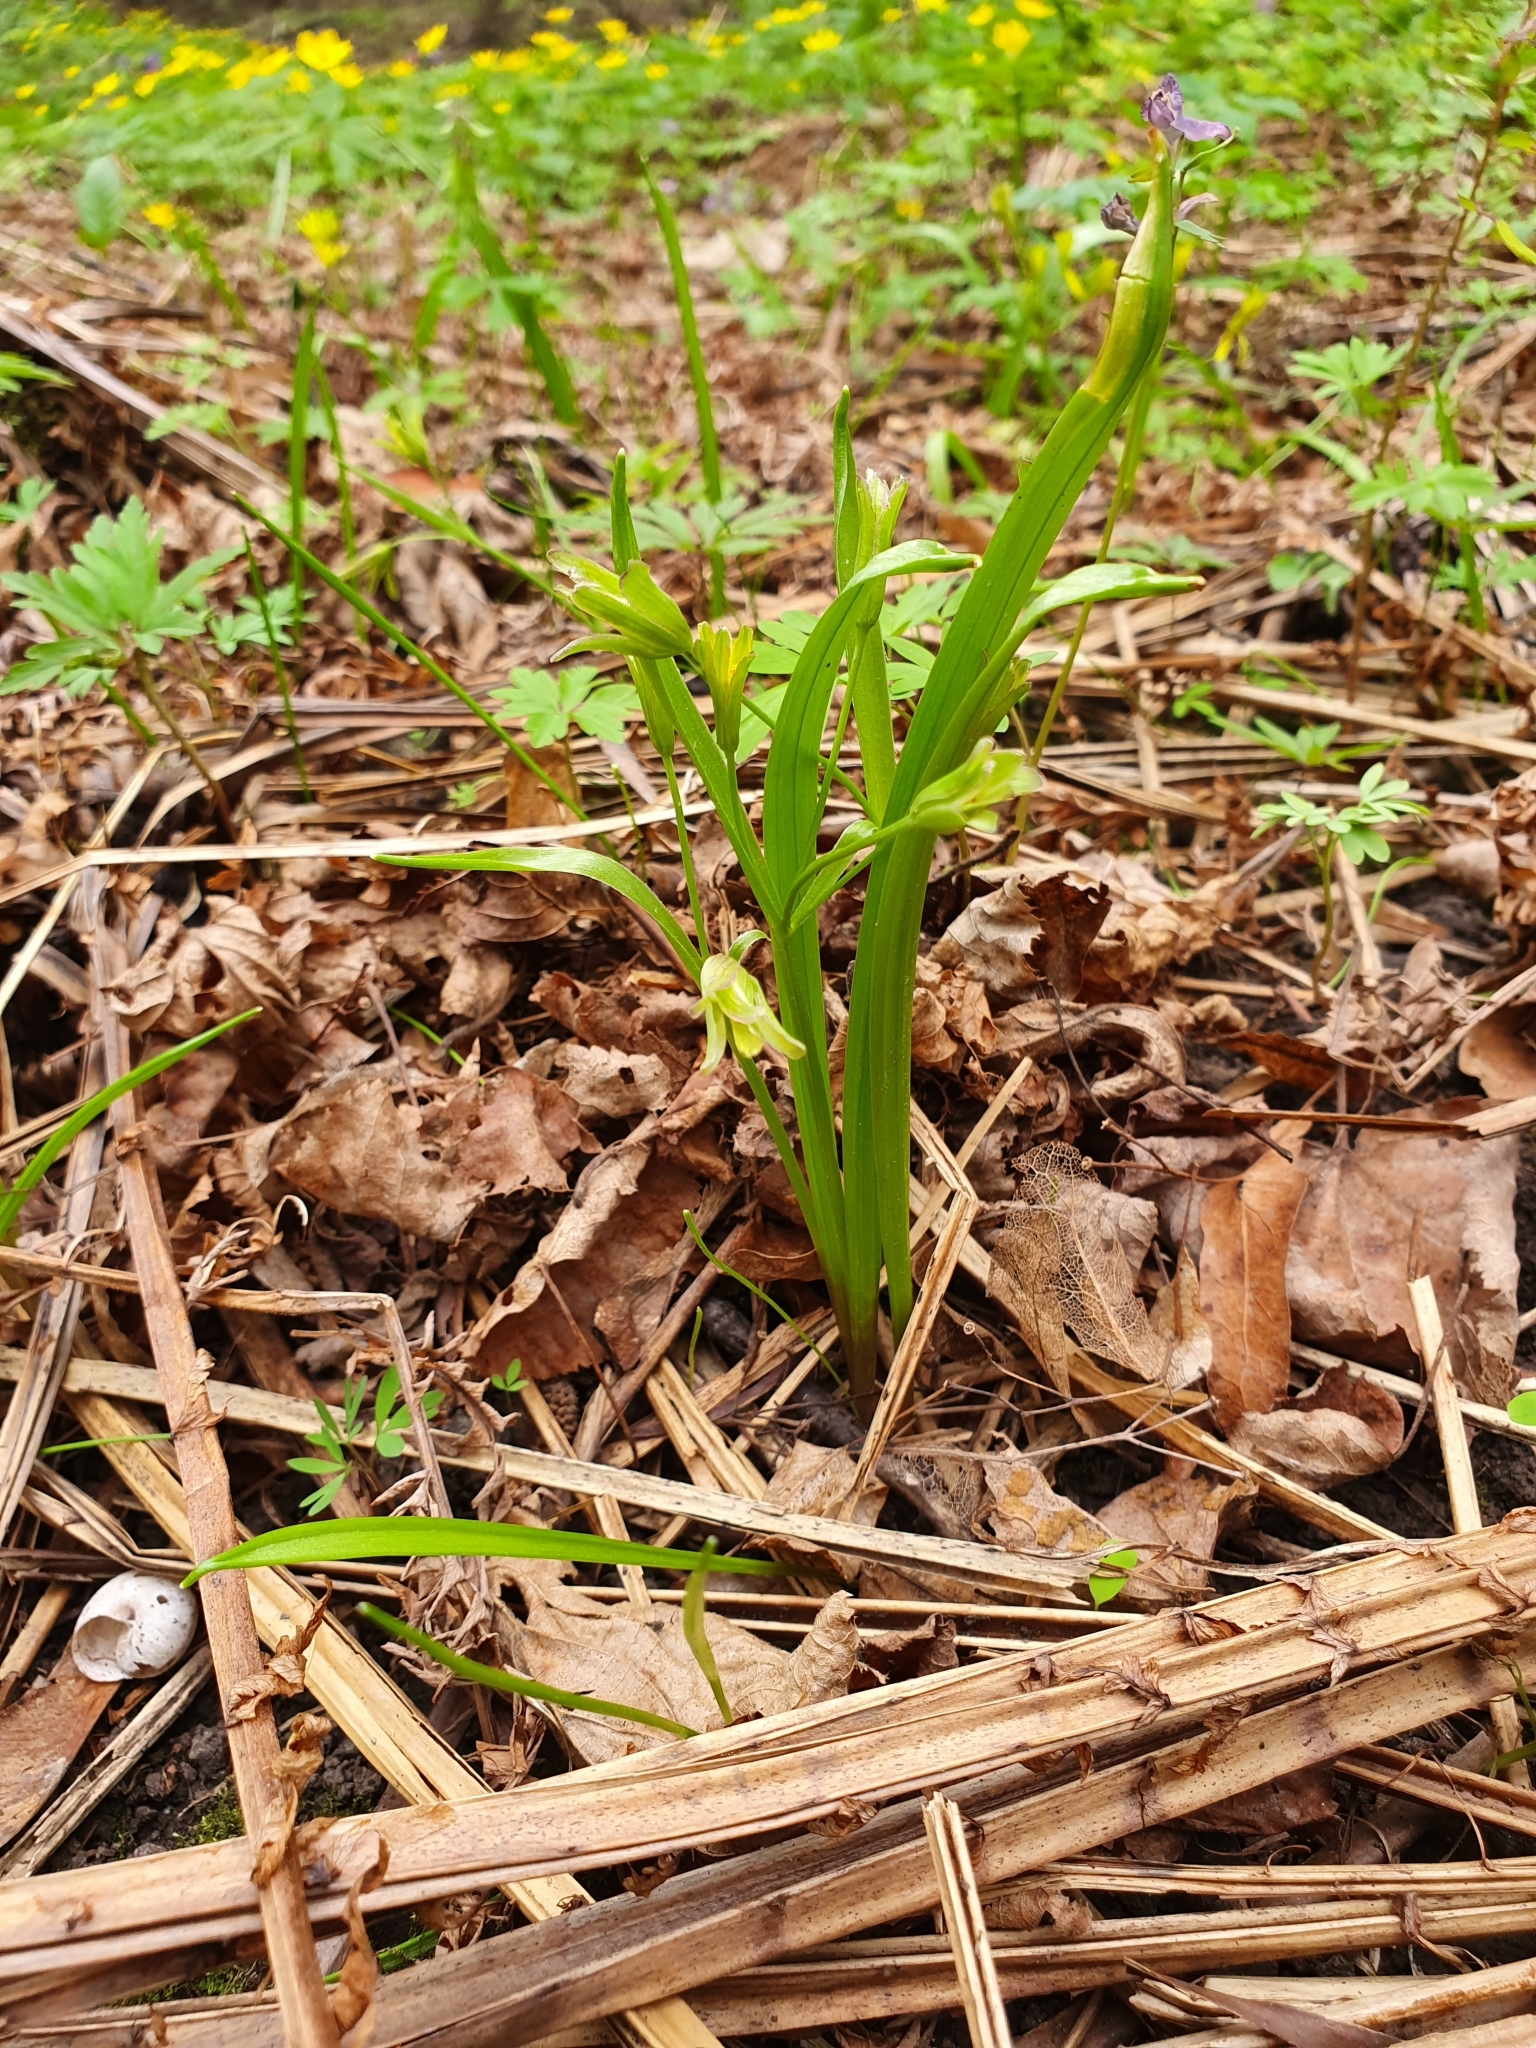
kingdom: Plantae
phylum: Tracheophyta
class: Liliopsida
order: Liliales
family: Liliaceae
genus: Gagea
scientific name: Gagea lutea
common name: Yellow star-of-bethlehem
